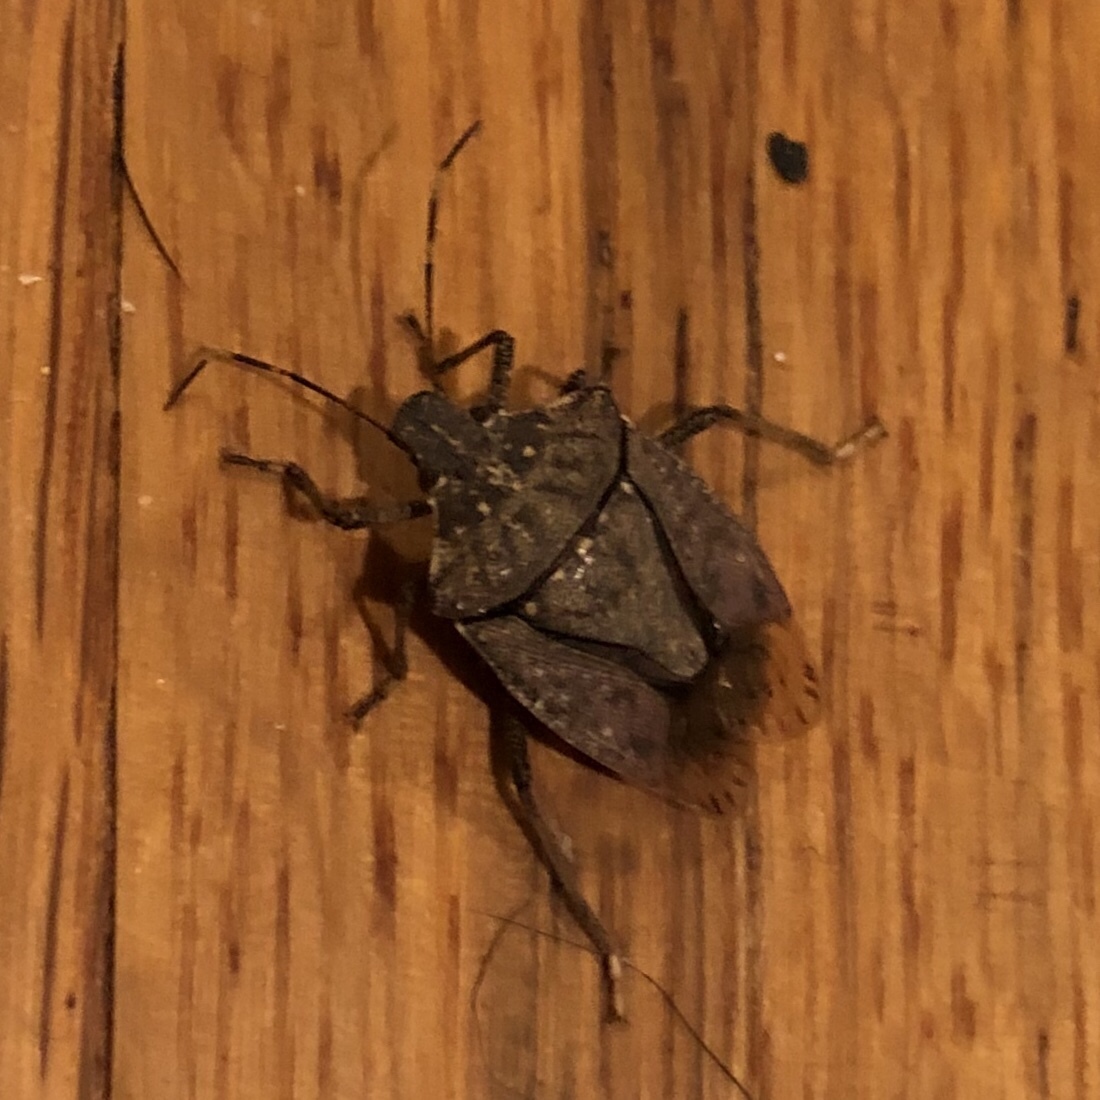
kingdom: Animalia
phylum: Arthropoda
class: Insecta
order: Hemiptera
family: Pentatomidae
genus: Halyomorpha
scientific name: Halyomorpha halys
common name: Brown marmorated stink bug
